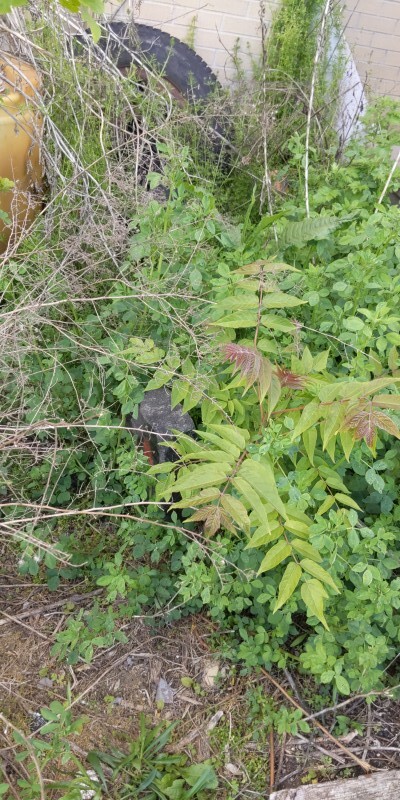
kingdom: Plantae
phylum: Tracheophyta
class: Magnoliopsida
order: Sapindales
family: Simaroubaceae
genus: Ailanthus
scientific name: Ailanthus altissima
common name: Tree-of-heaven
